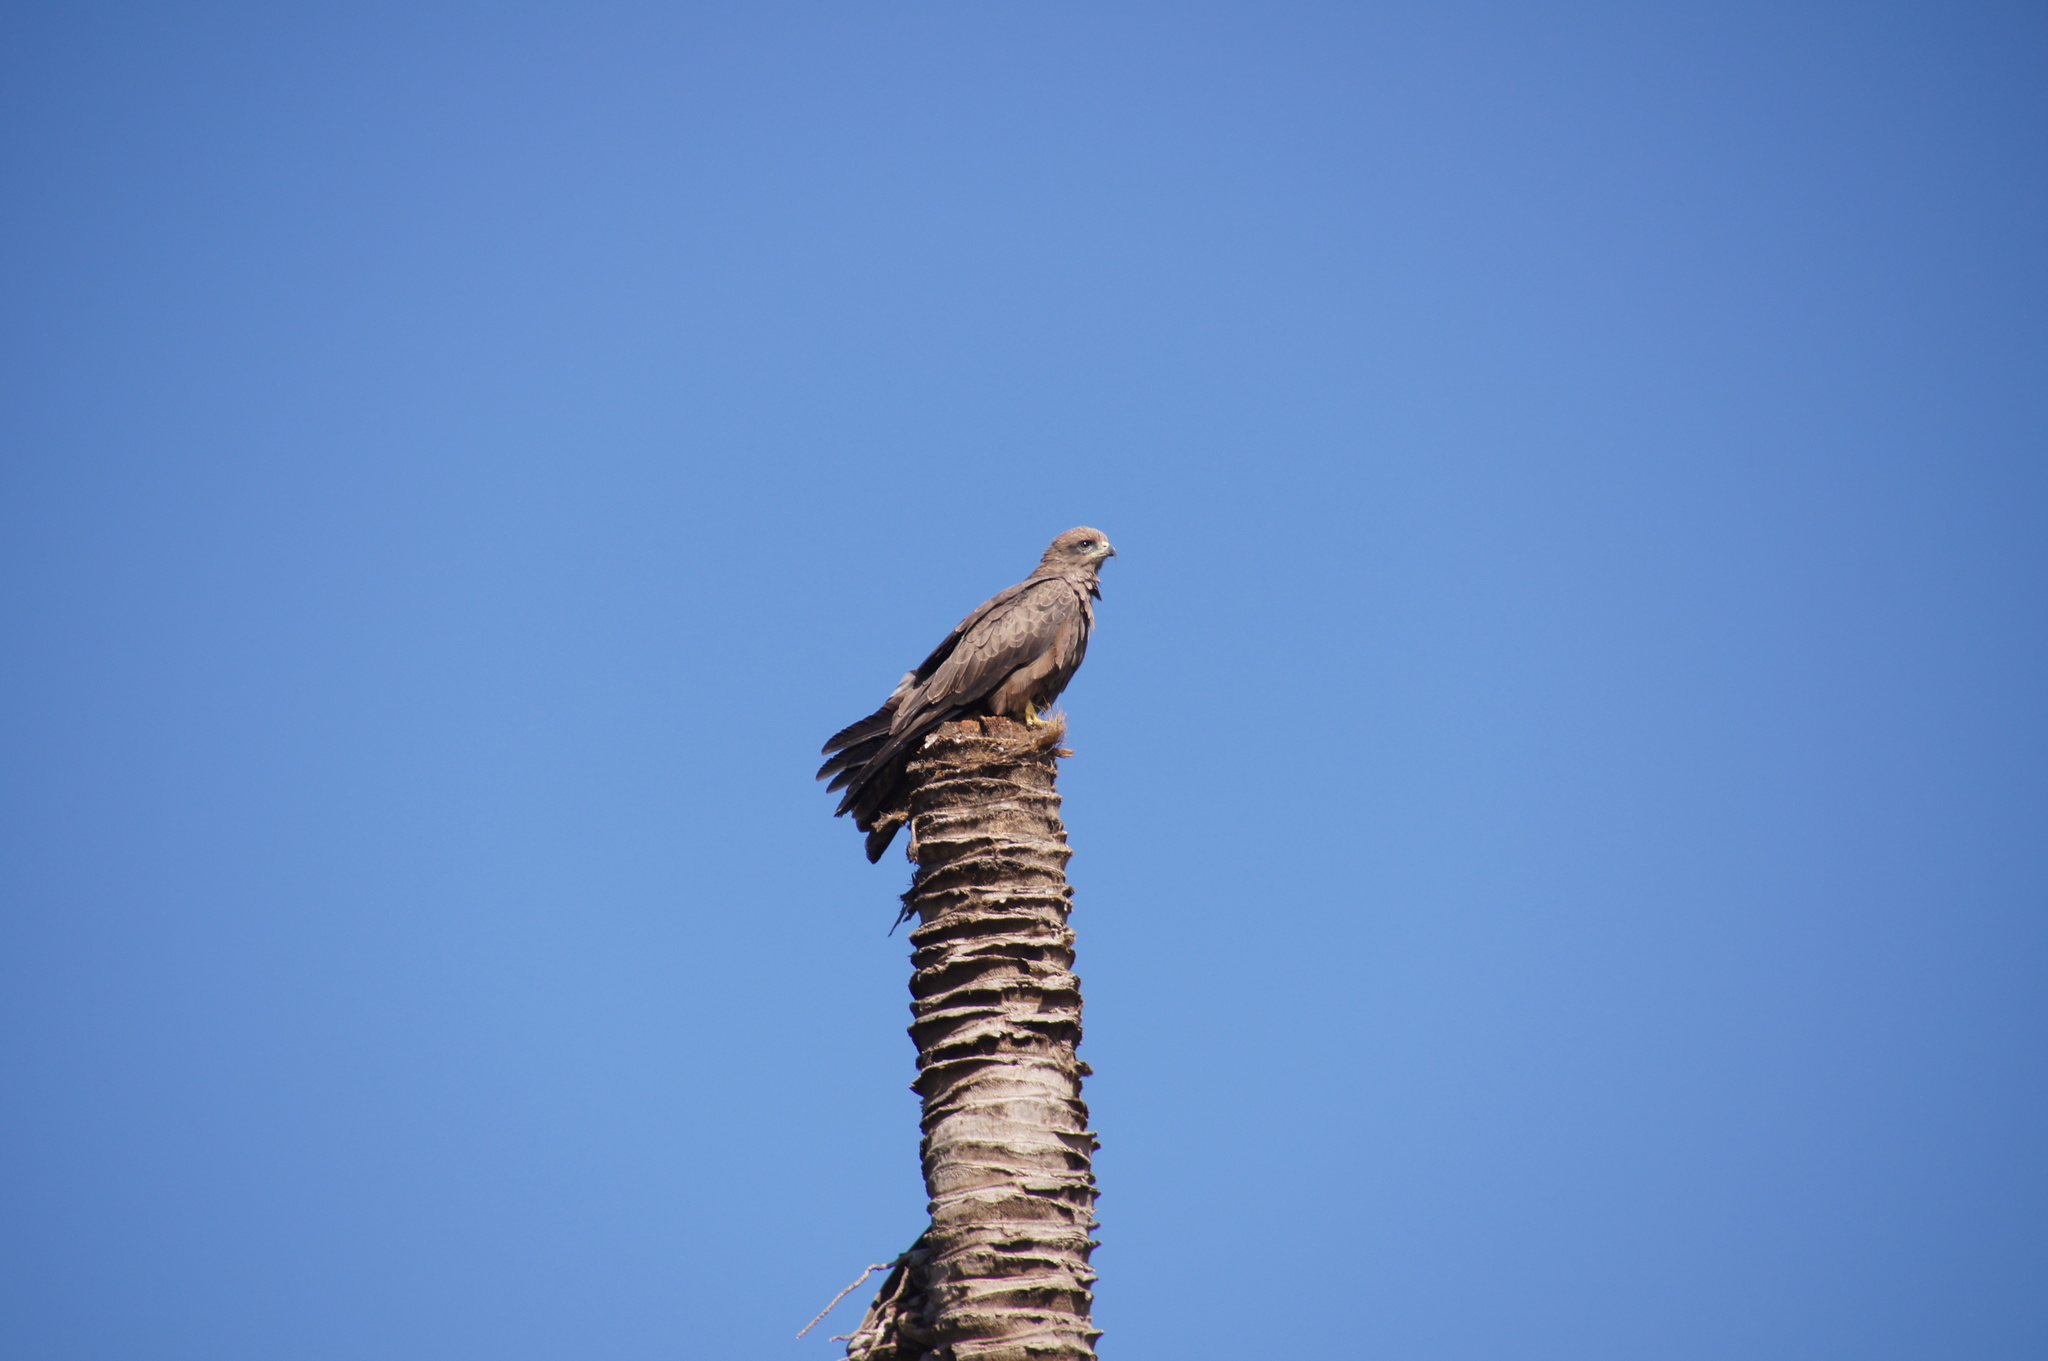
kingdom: Animalia
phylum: Chordata
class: Aves
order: Accipitriformes
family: Accipitridae
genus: Milvus
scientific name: Milvus migrans
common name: Black kite
